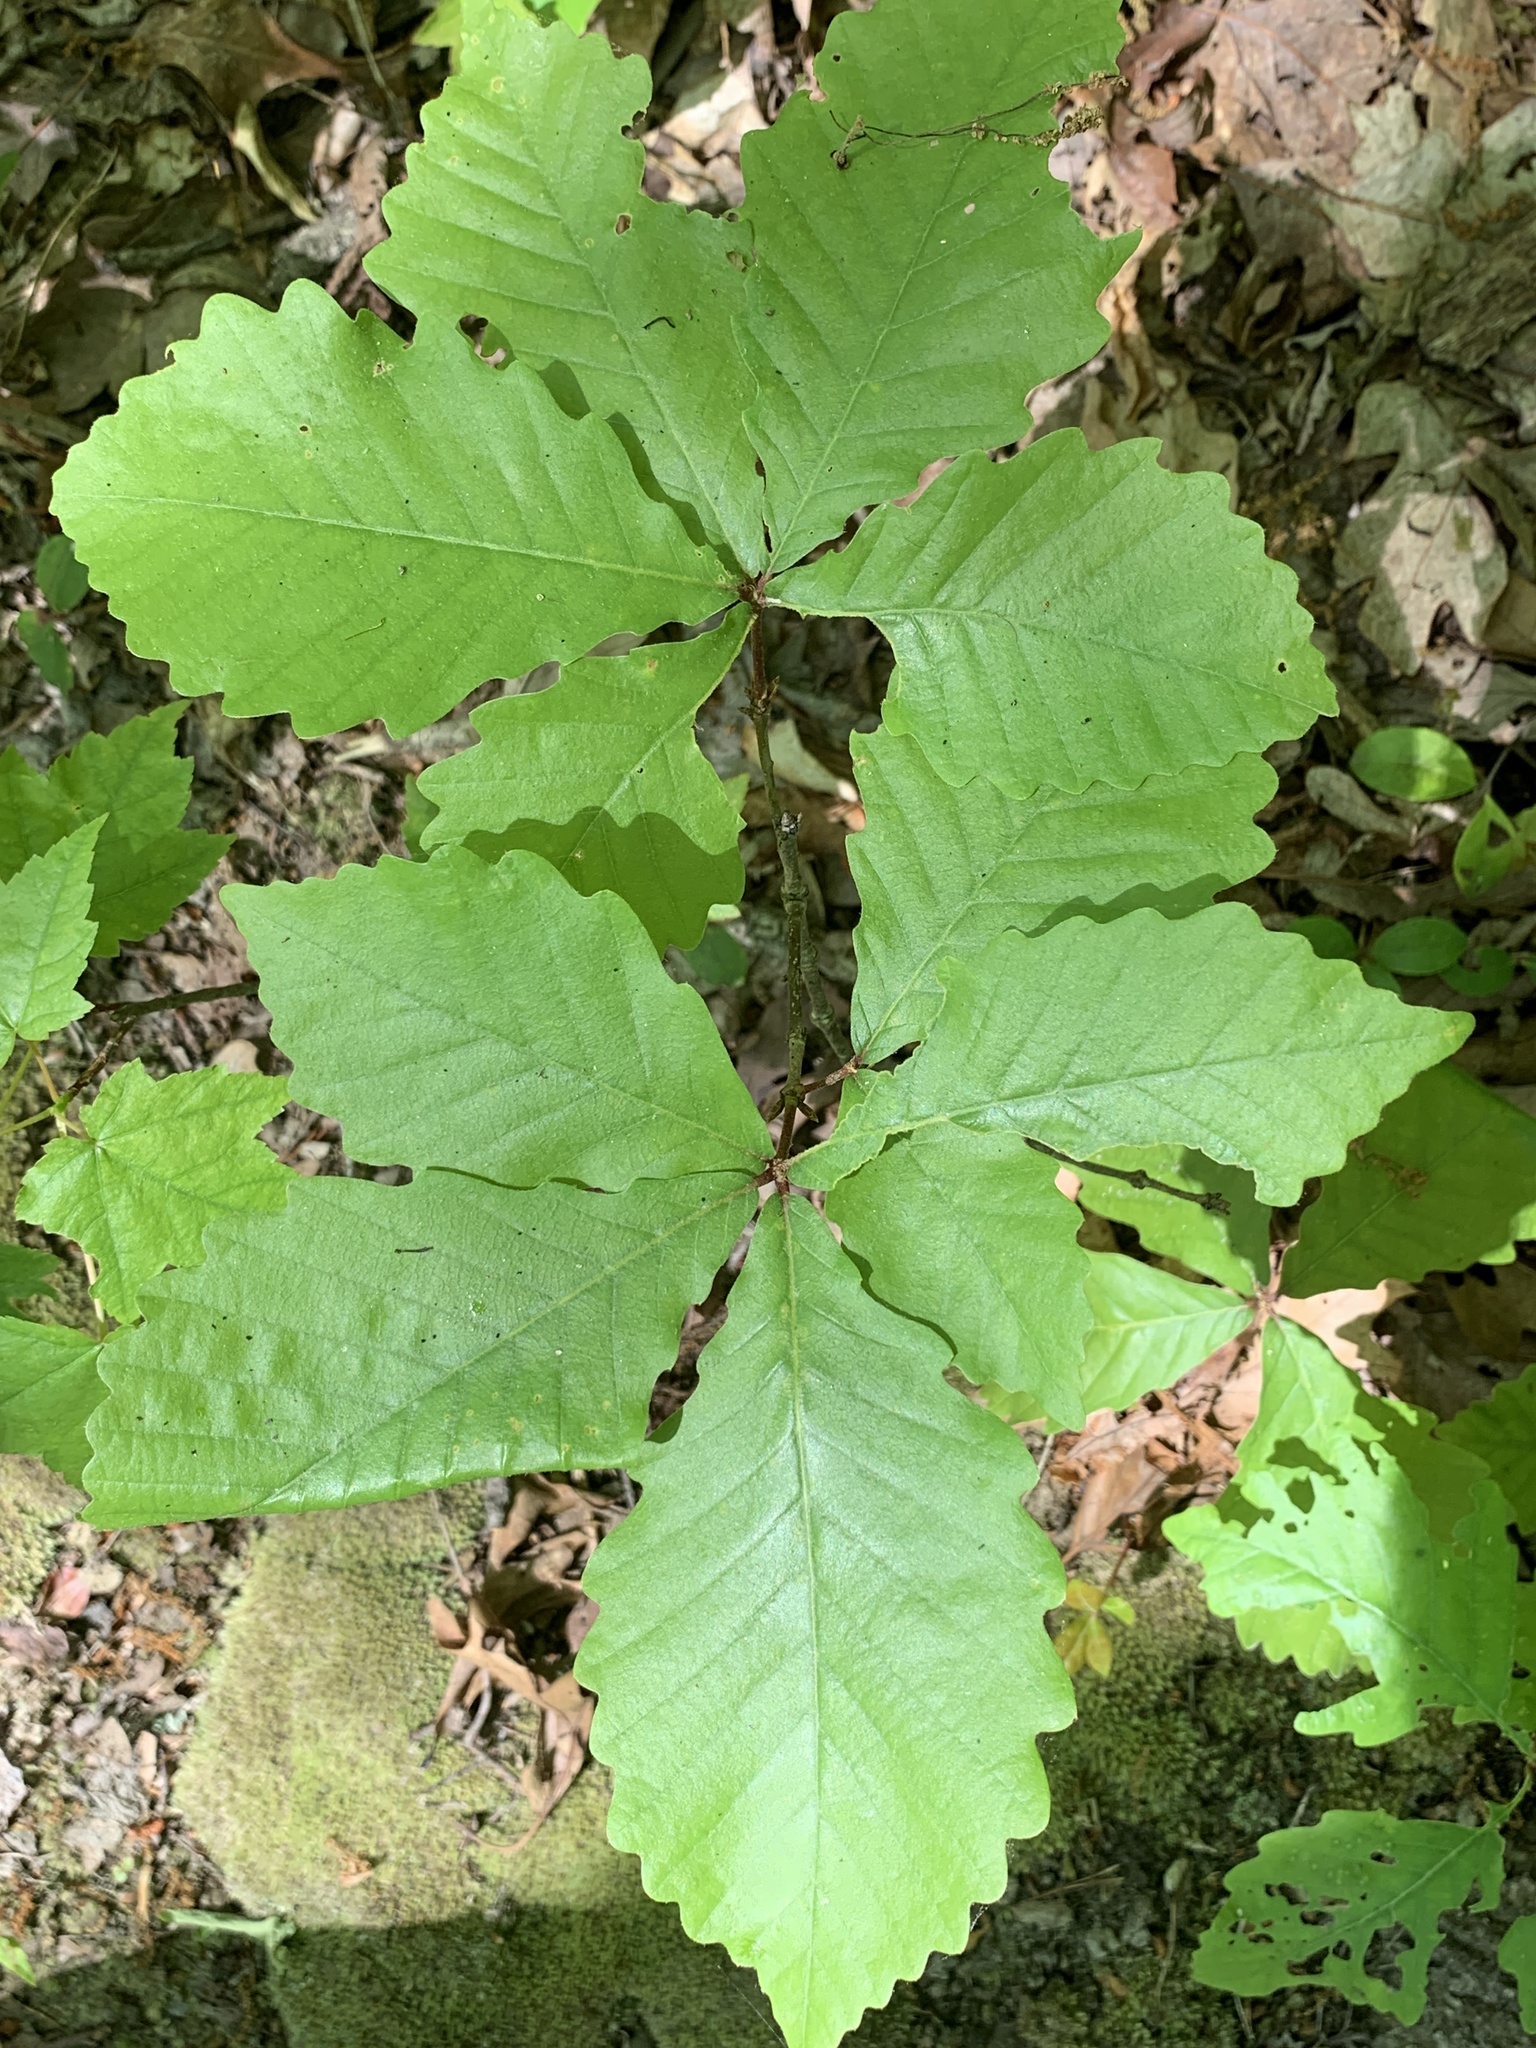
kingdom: Plantae
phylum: Tracheophyta
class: Magnoliopsida
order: Fagales
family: Fagaceae
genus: Quercus
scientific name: Quercus montana
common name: Chestnut oak
